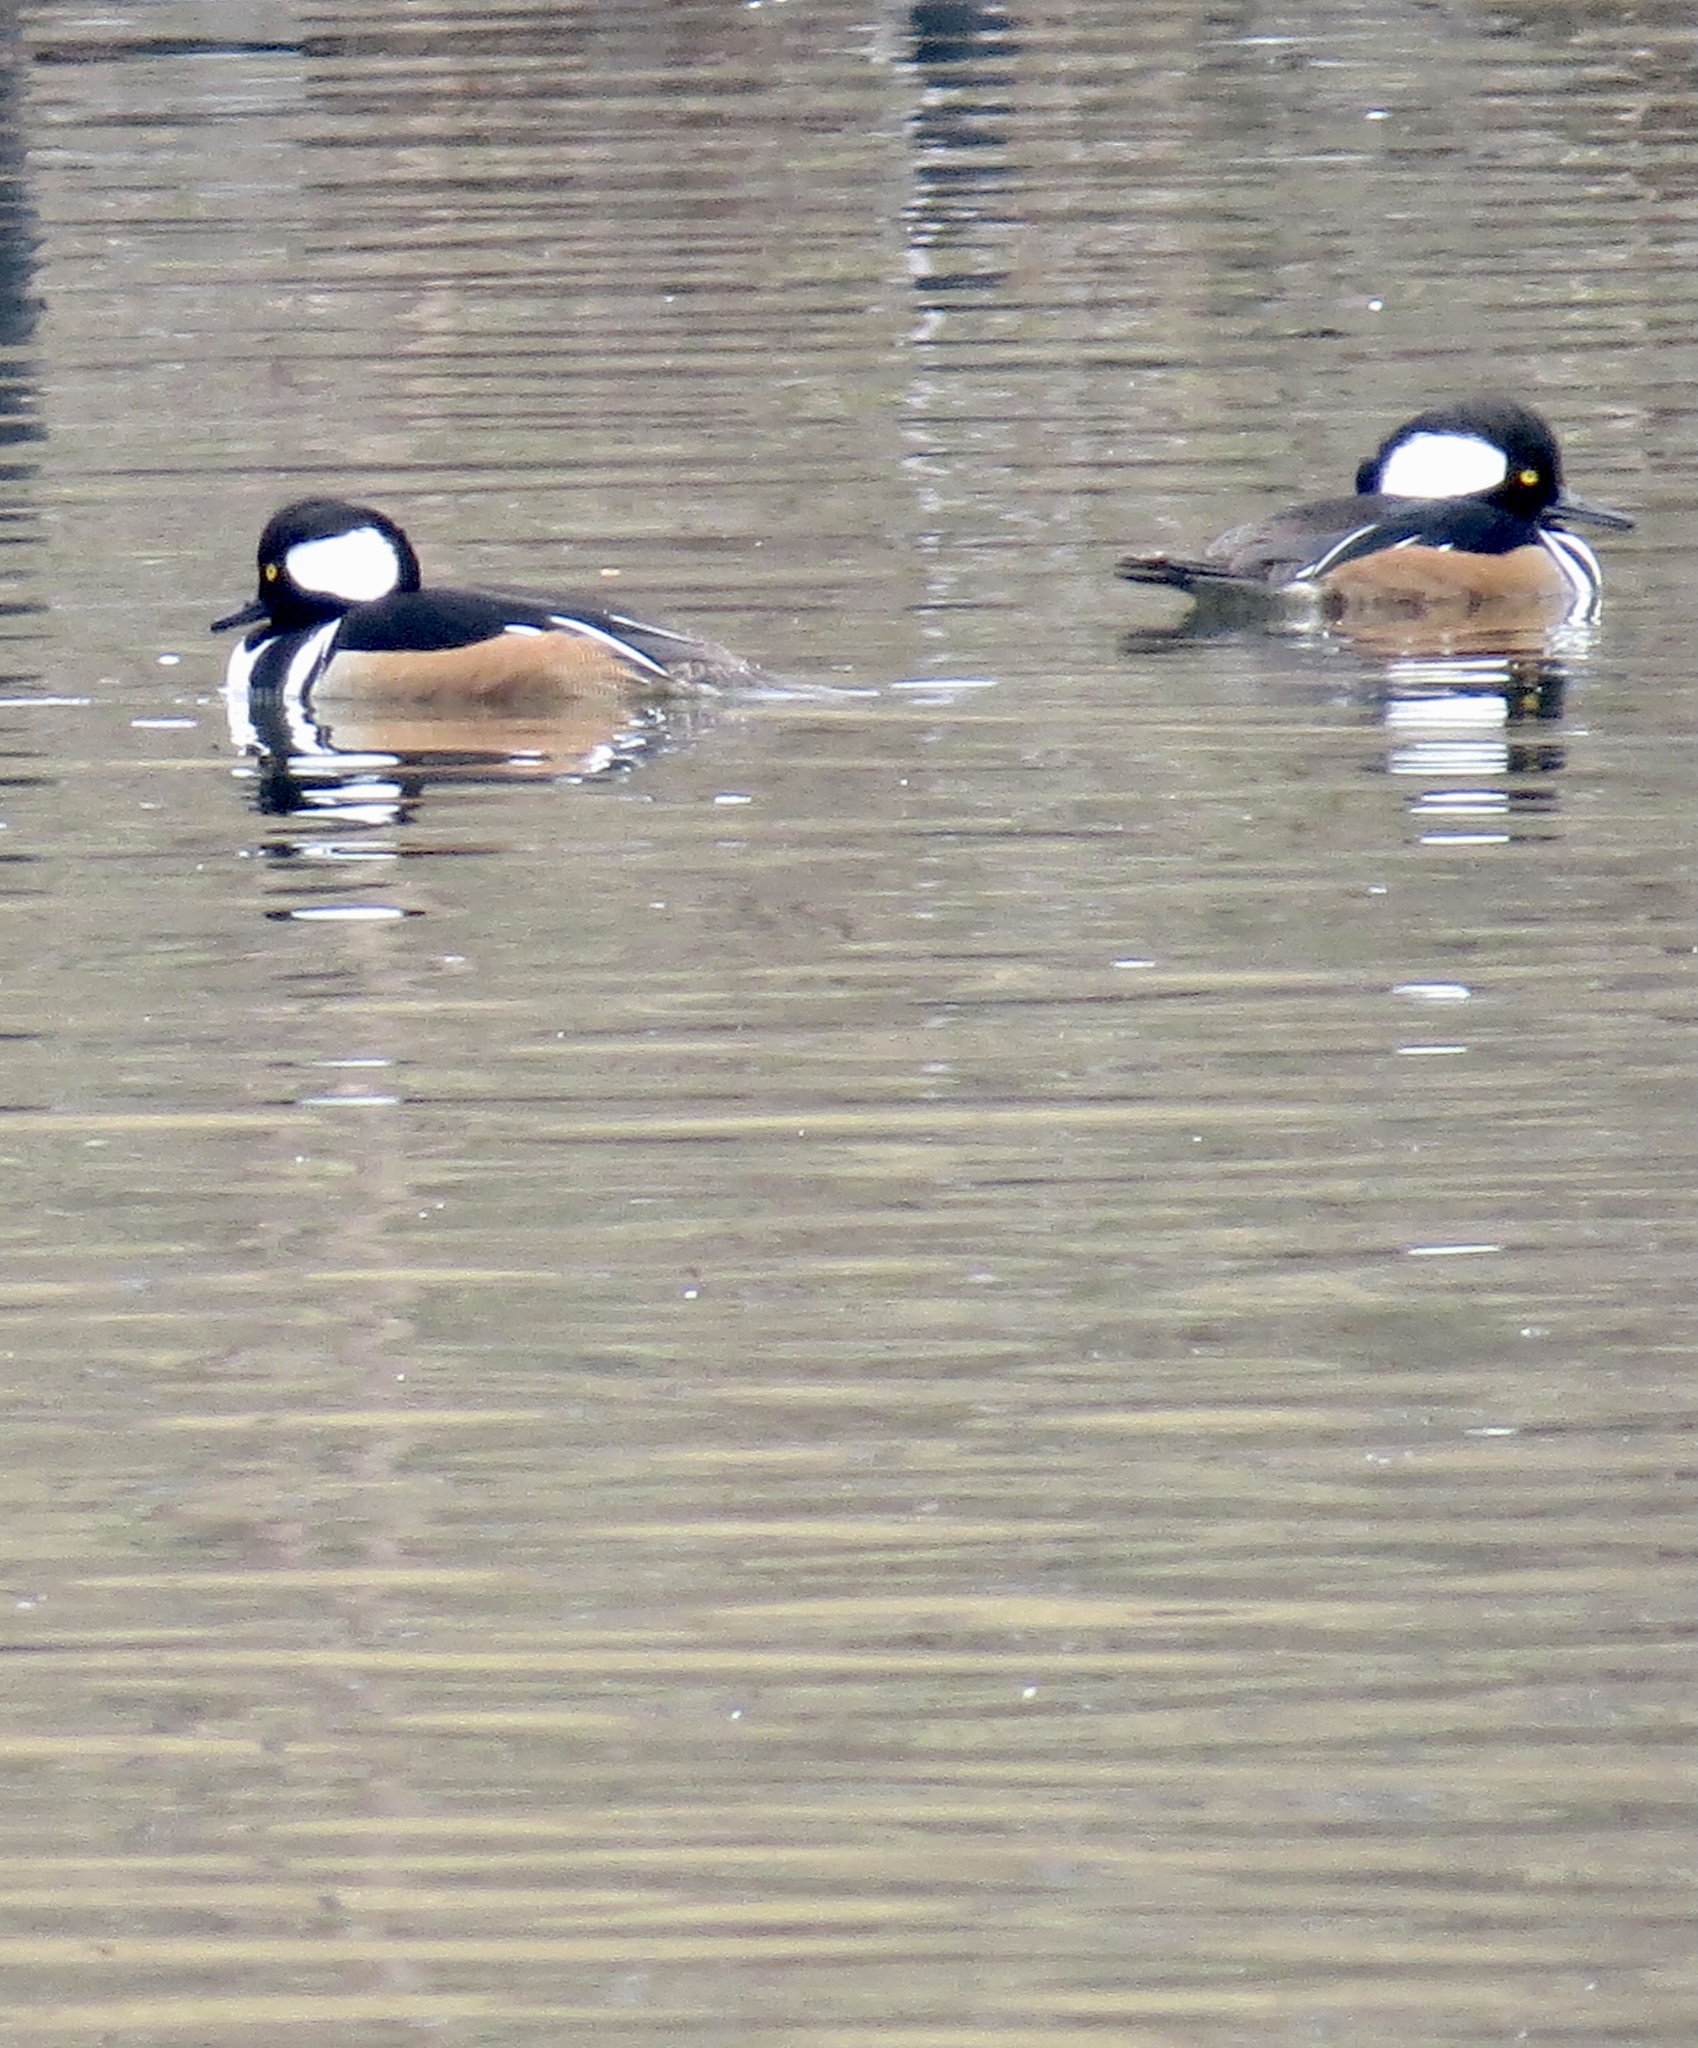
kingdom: Animalia
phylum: Chordata
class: Aves
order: Anseriformes
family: Anatidae
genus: Lophodytes
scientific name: Lophodytes cucullatus
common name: Hooded merganser
